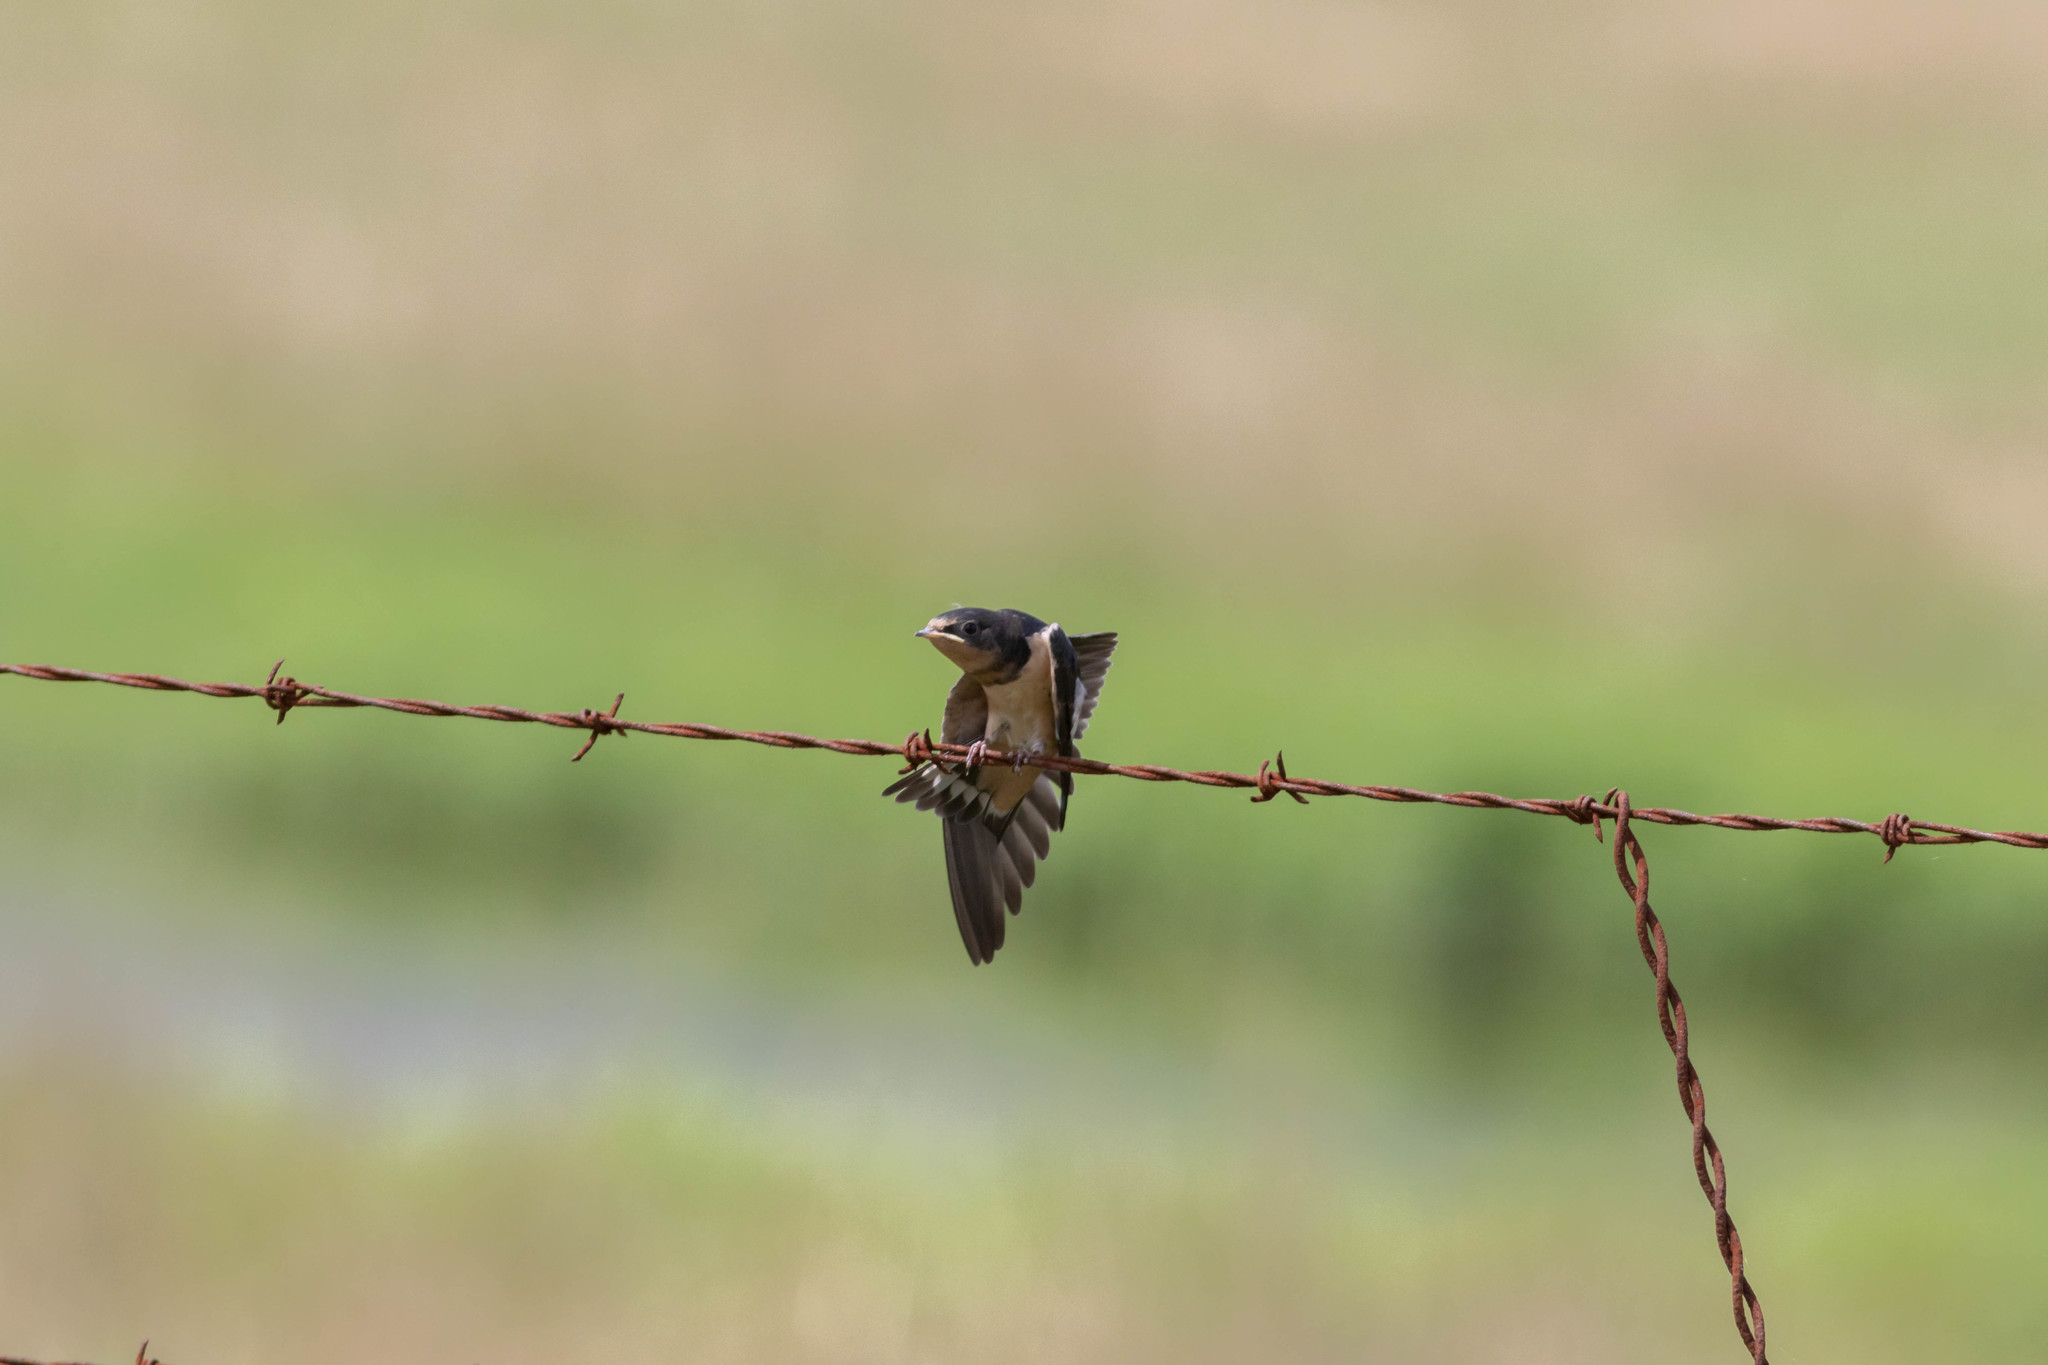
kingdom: Animalia
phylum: Chordata
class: Aves
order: Passeriformes
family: Hirundinidae
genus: Hirundo
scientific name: Hirundo rustica
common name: Barn swallow
